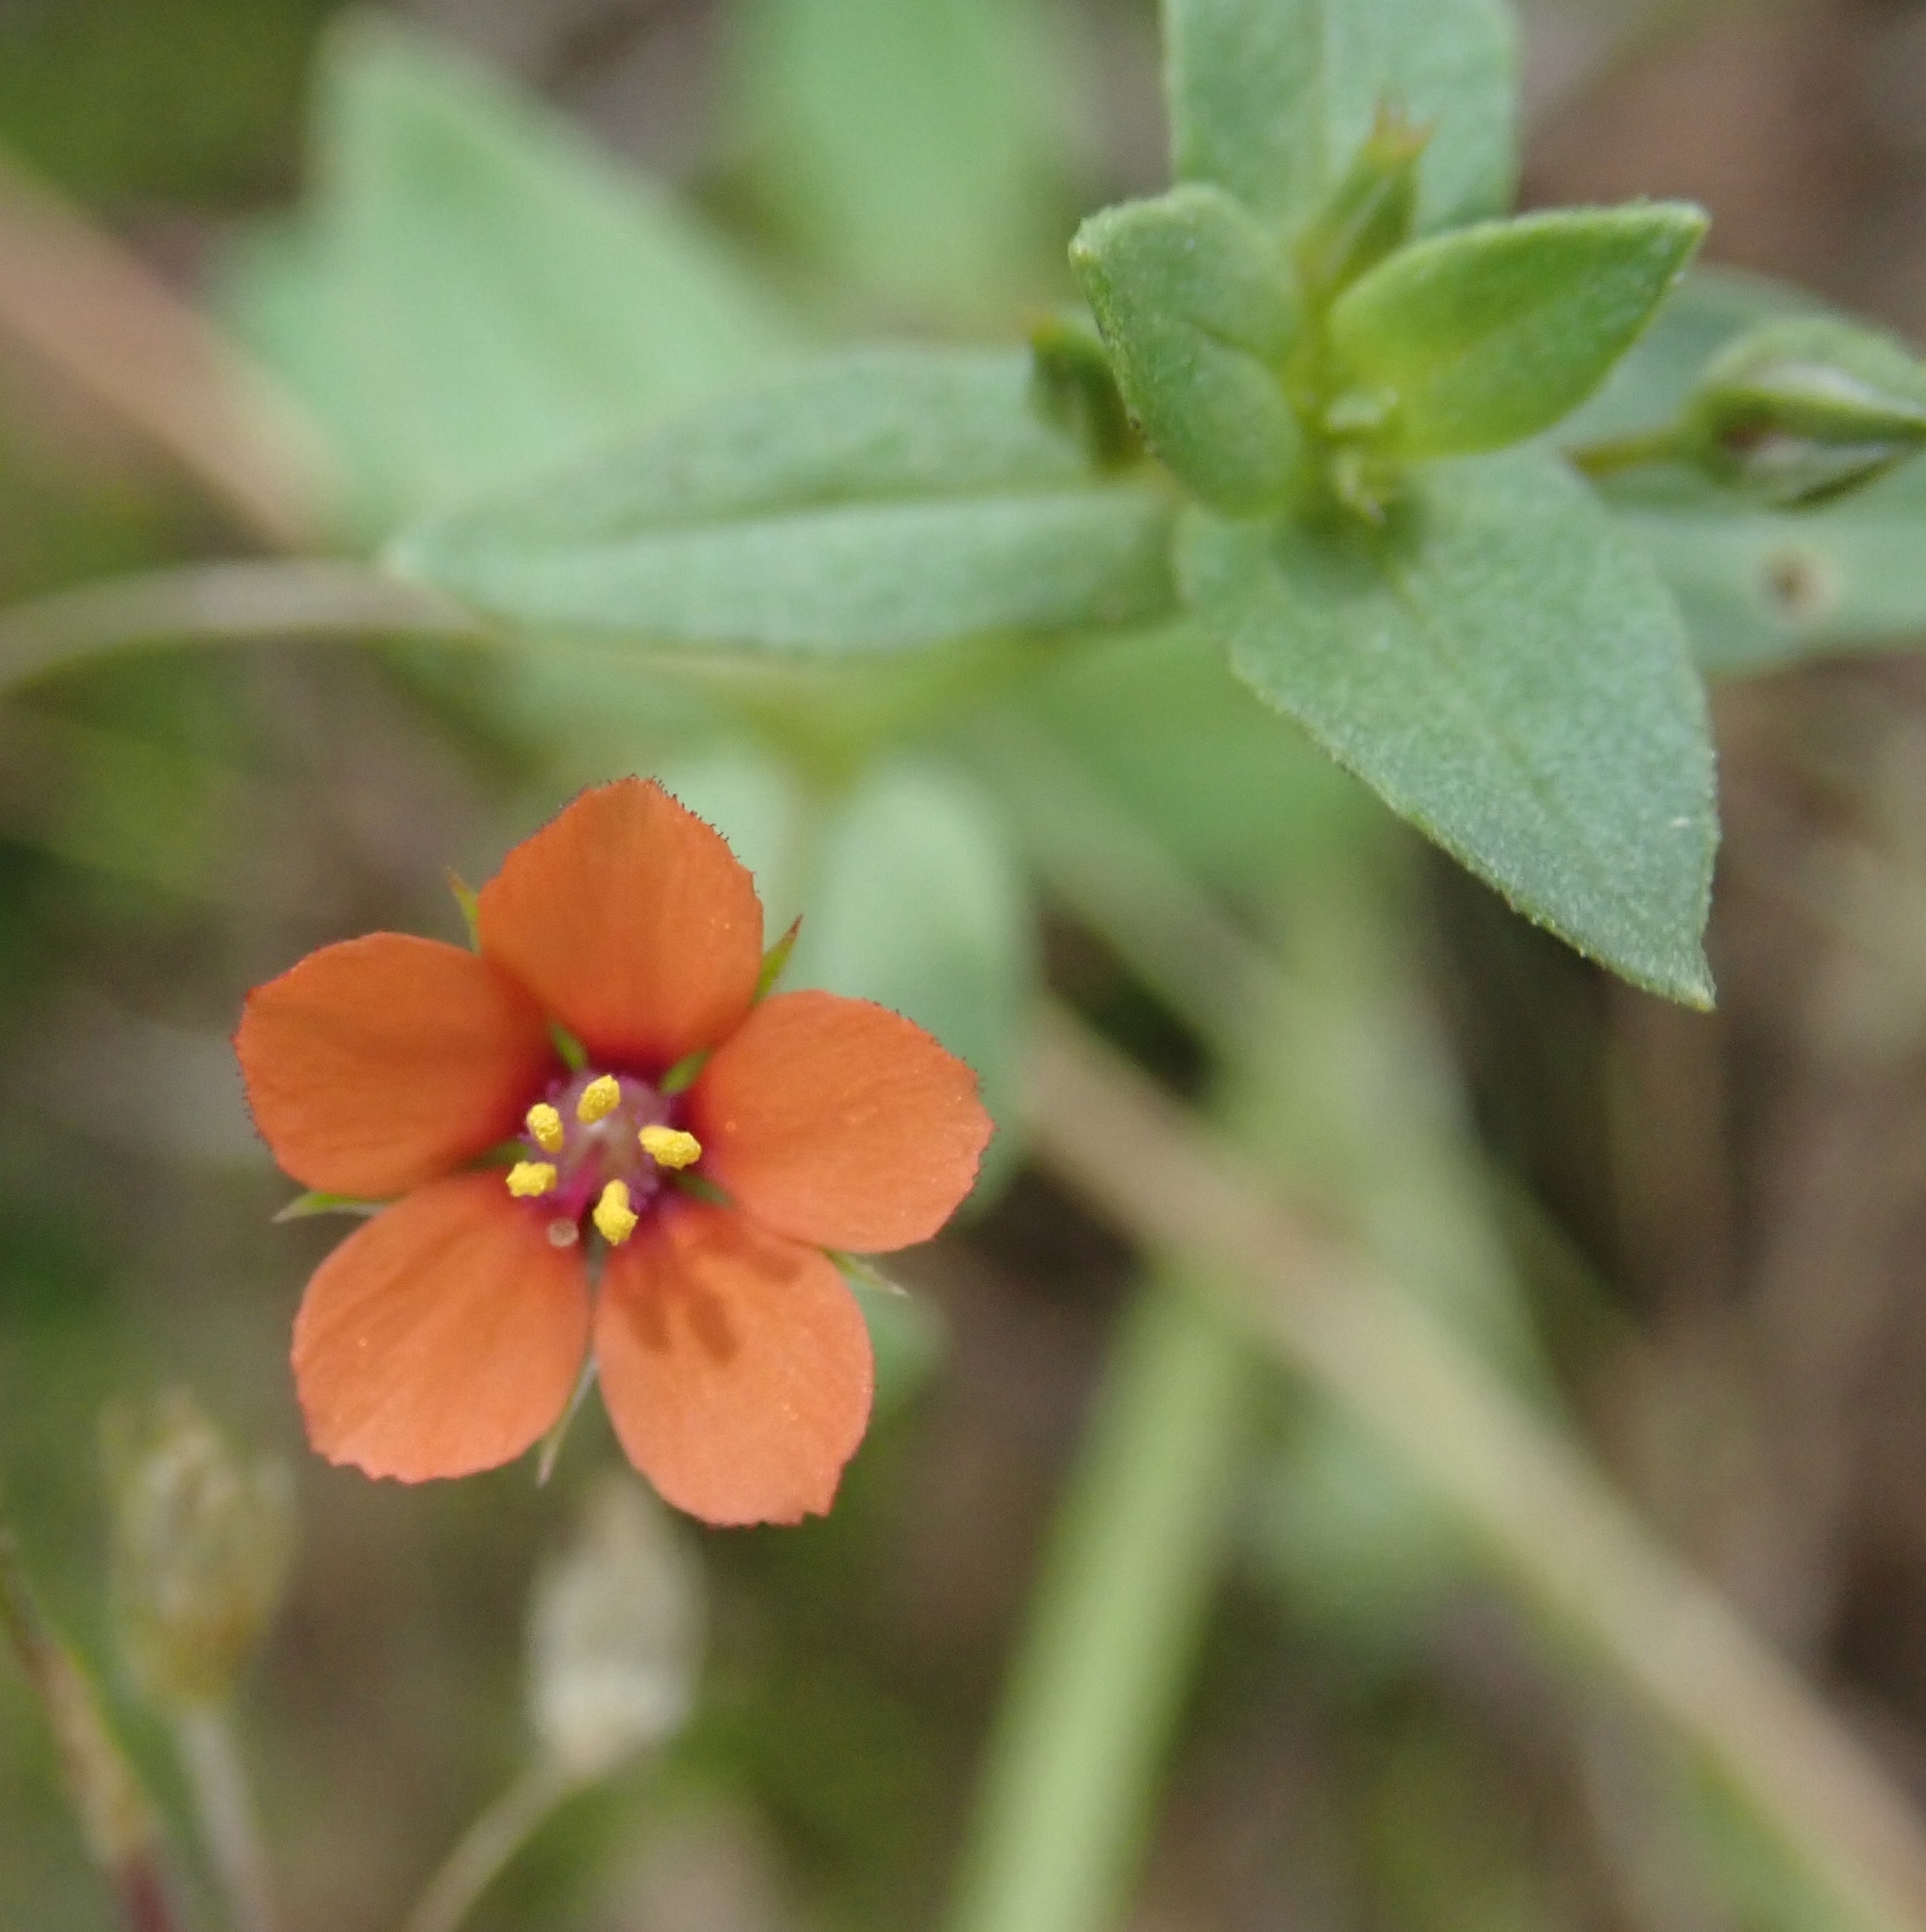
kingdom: Plantae
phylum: Tracheophyta
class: Magnoliopsida
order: Ericales
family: Primulaceae
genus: Lysimachia
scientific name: Lysimachia arvensis
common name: Scarlet pimpernel
